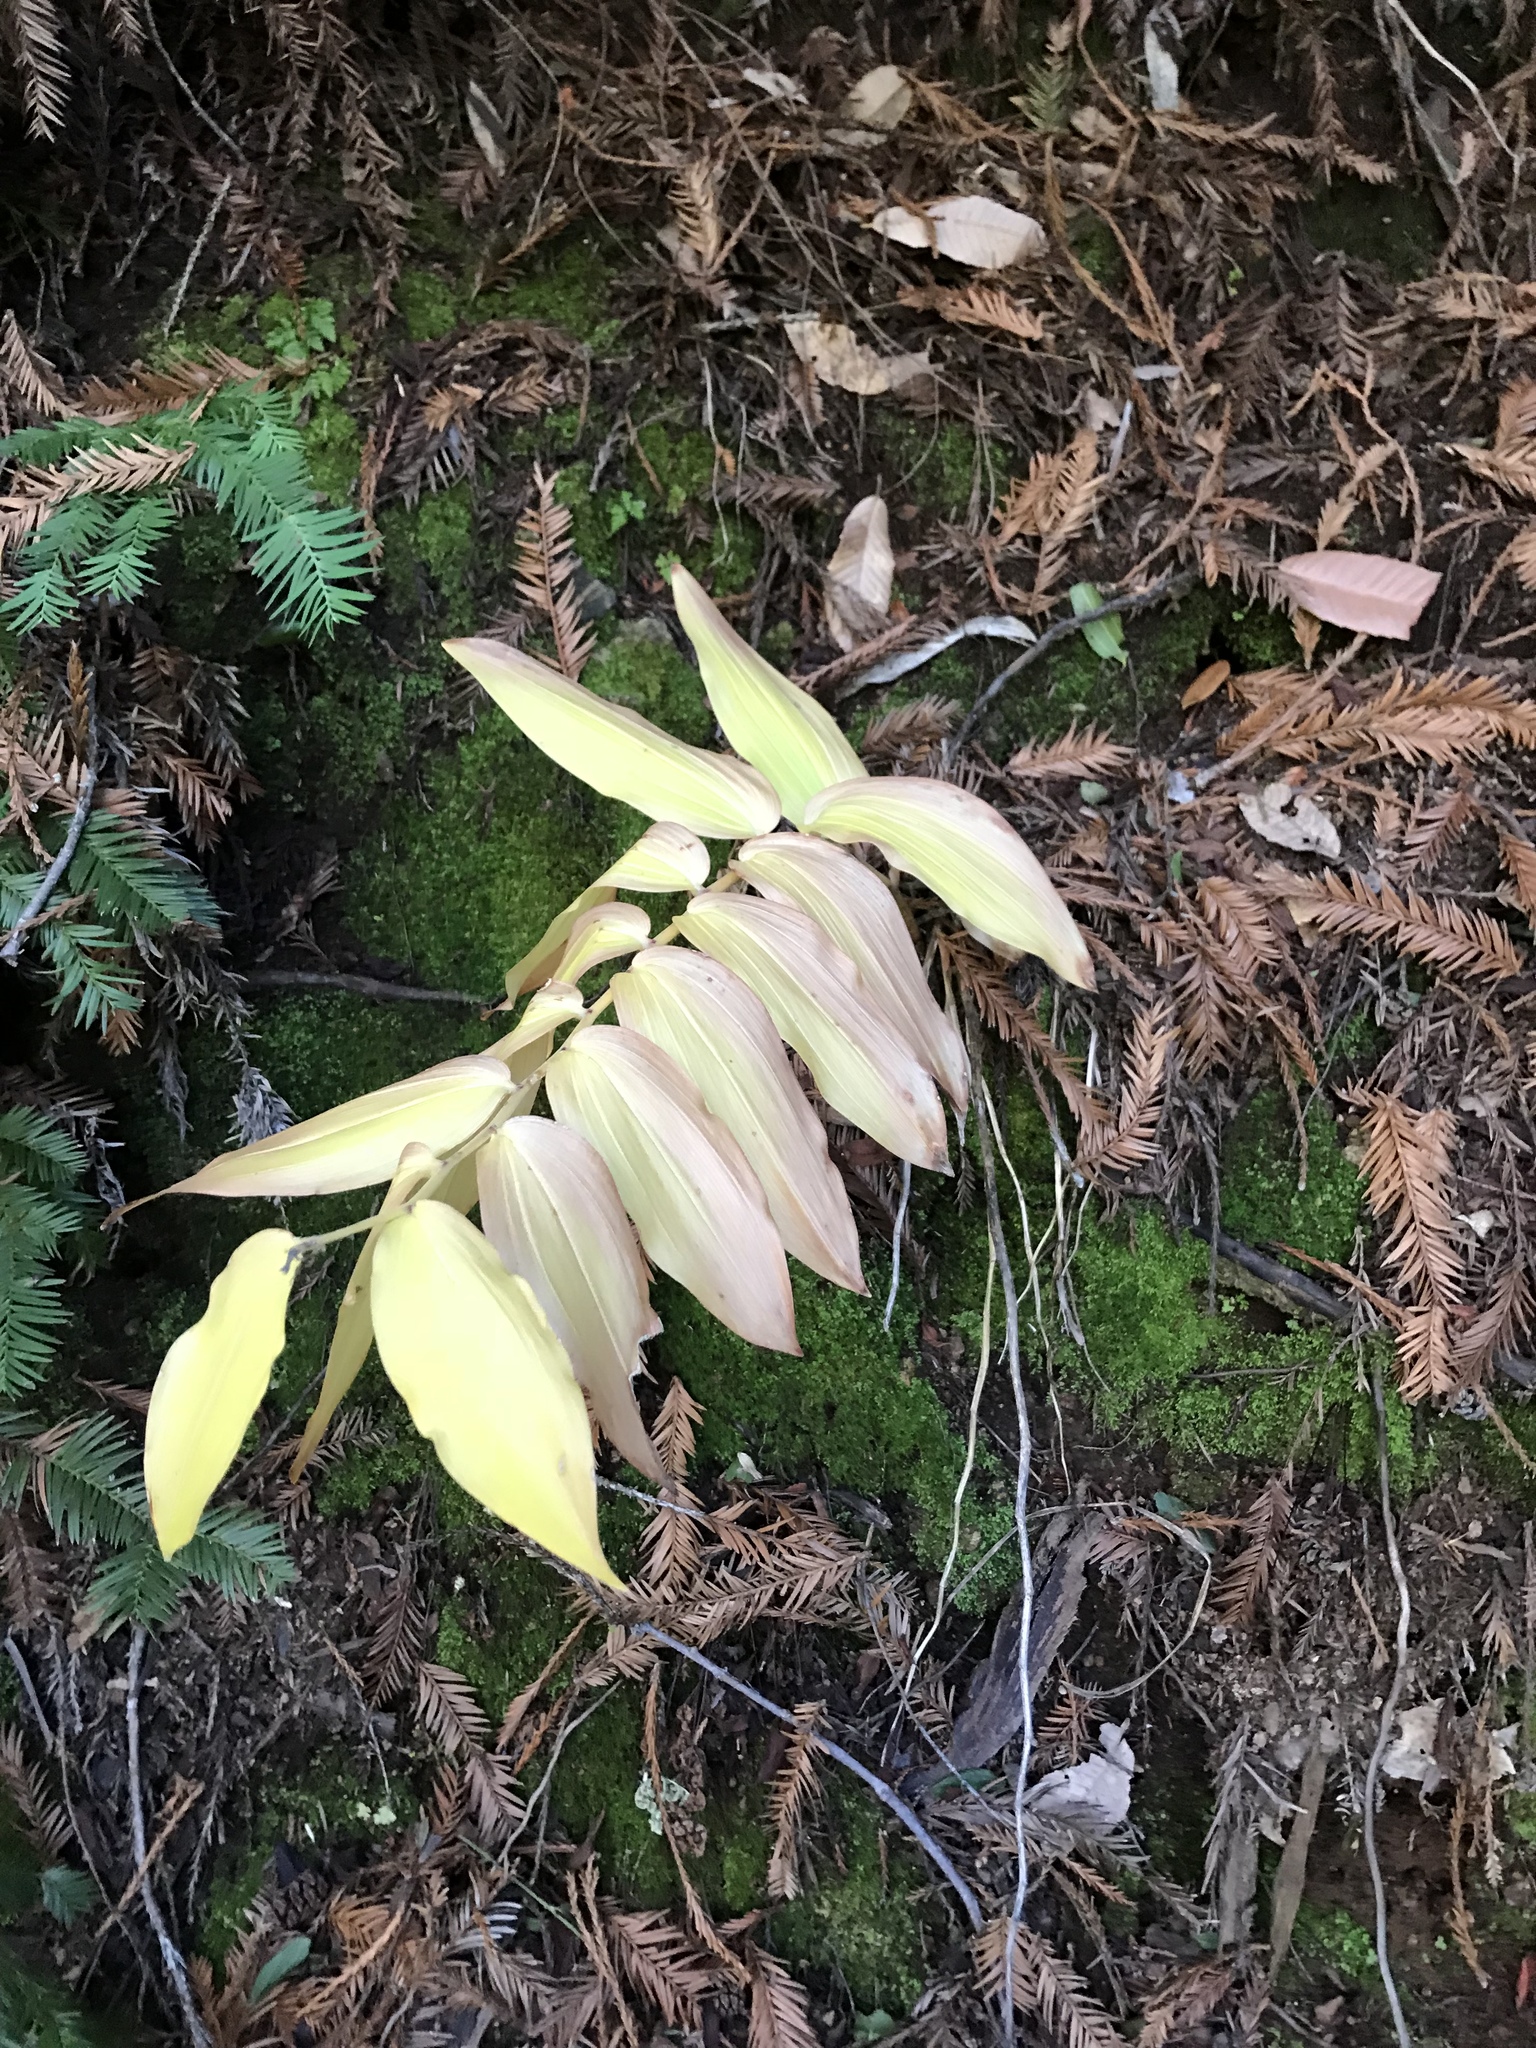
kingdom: Plantae
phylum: Tracheophyta
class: Liliopsida
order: Asparagales
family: Asparagaceae
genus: Maianthemum
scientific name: Maianthemum racemosum
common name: False spikenard
